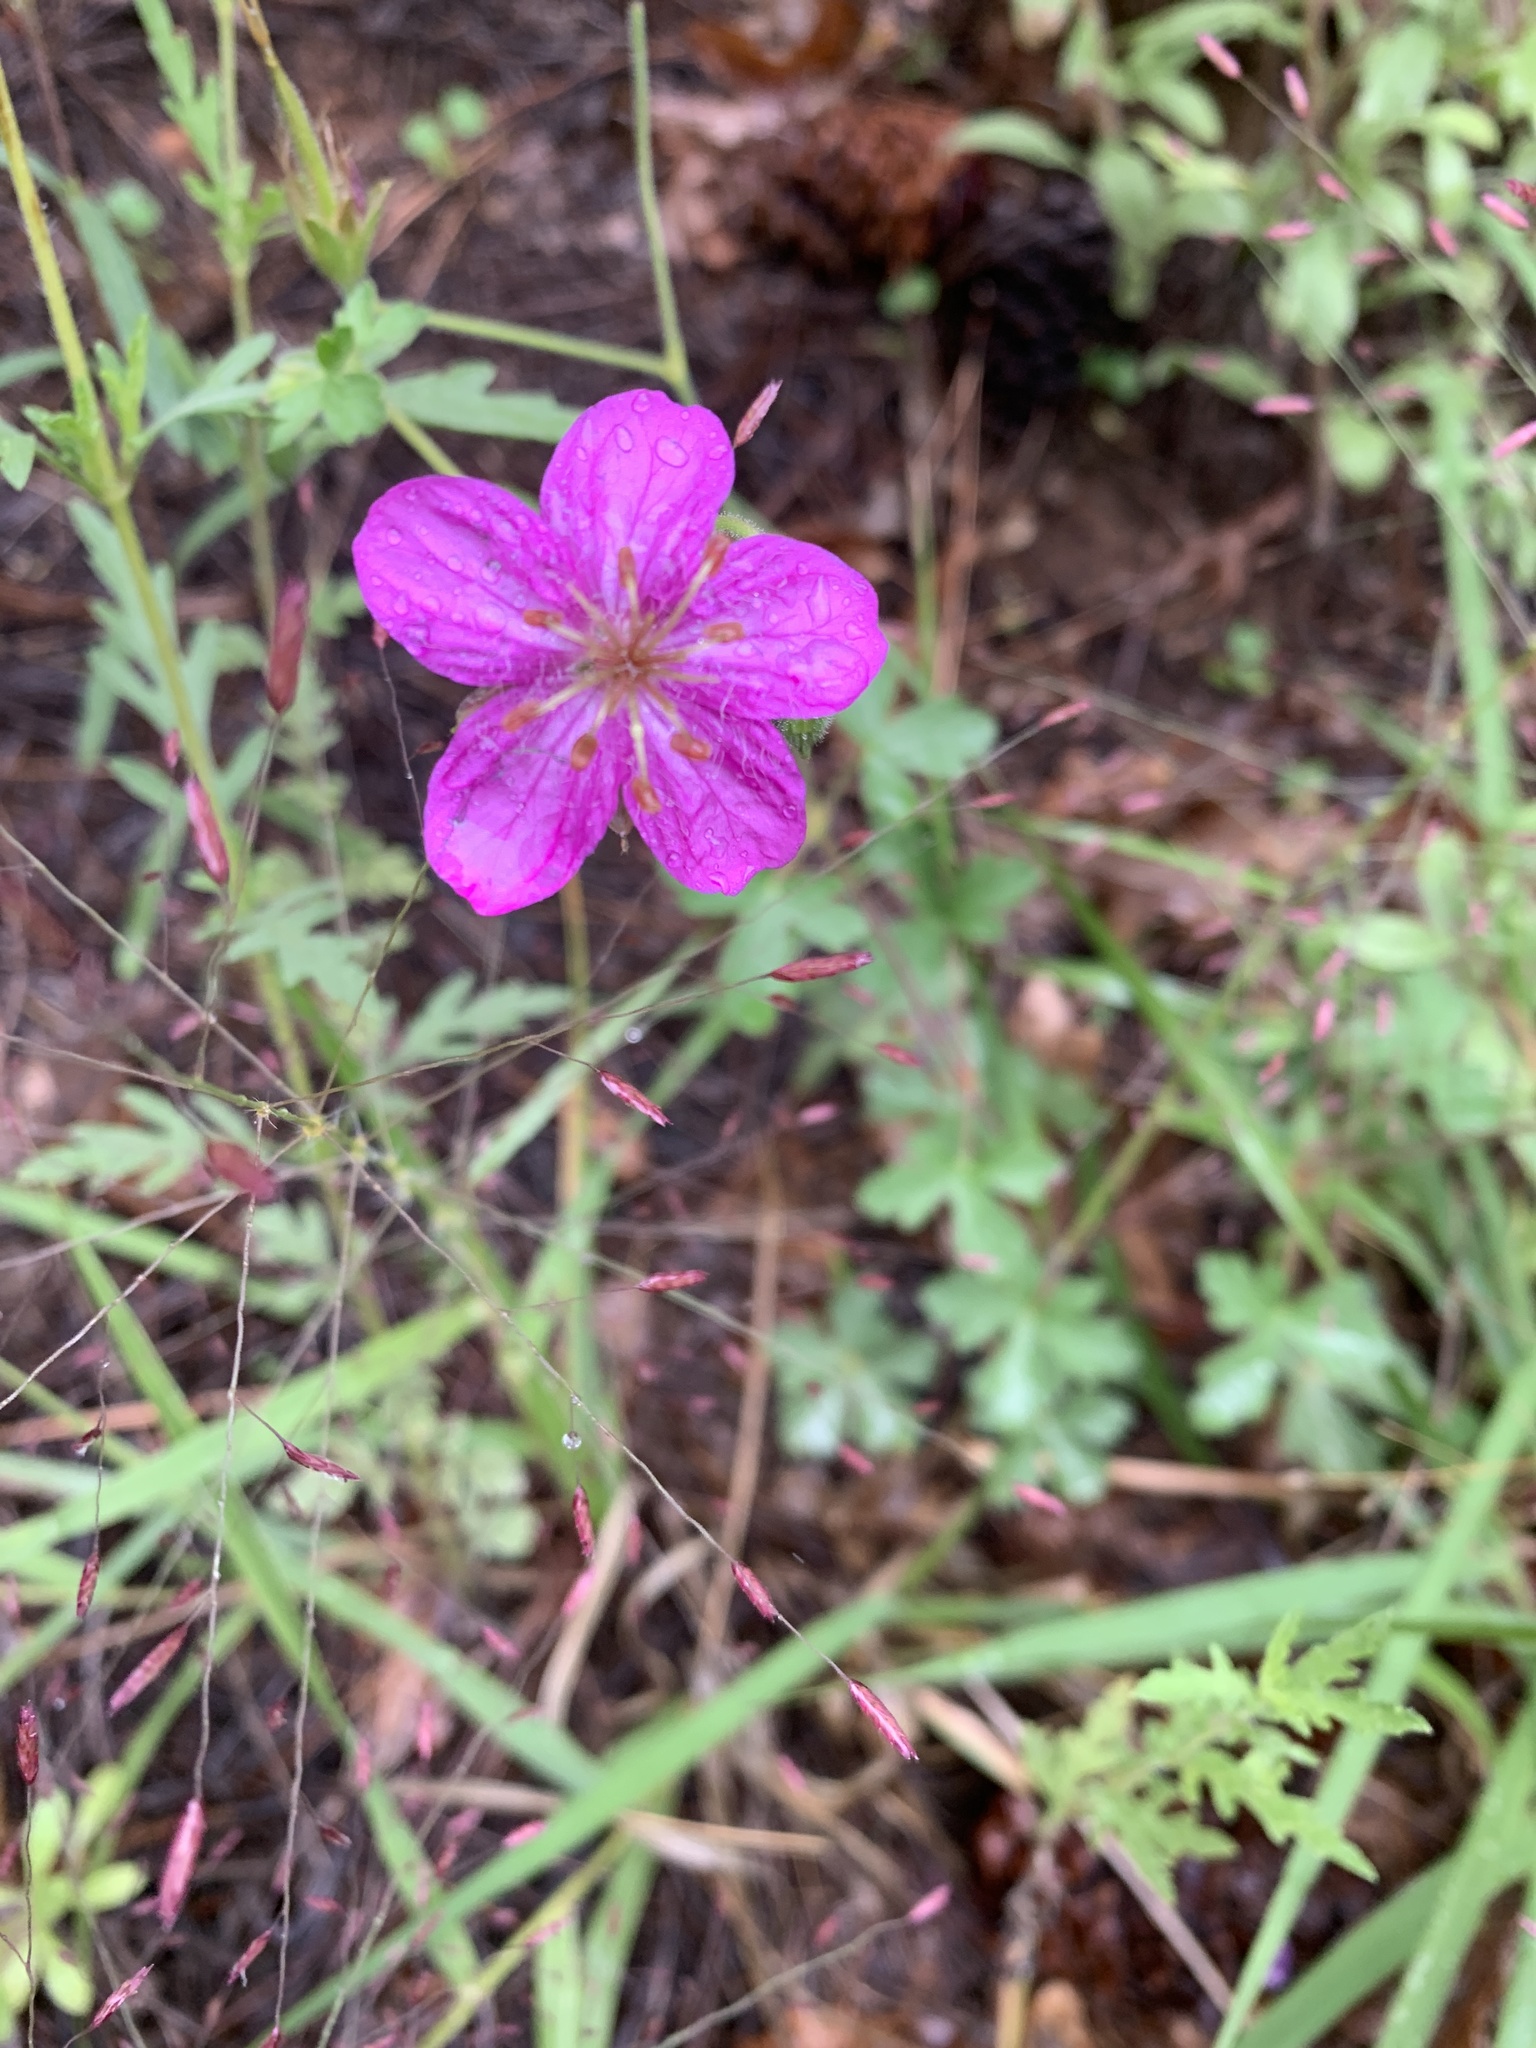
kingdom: Plantae
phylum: Tracheophyta
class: Magnoliopsida
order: Geraniales
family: Geraniaceae
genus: Geranium
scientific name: Geranium caespitosum
